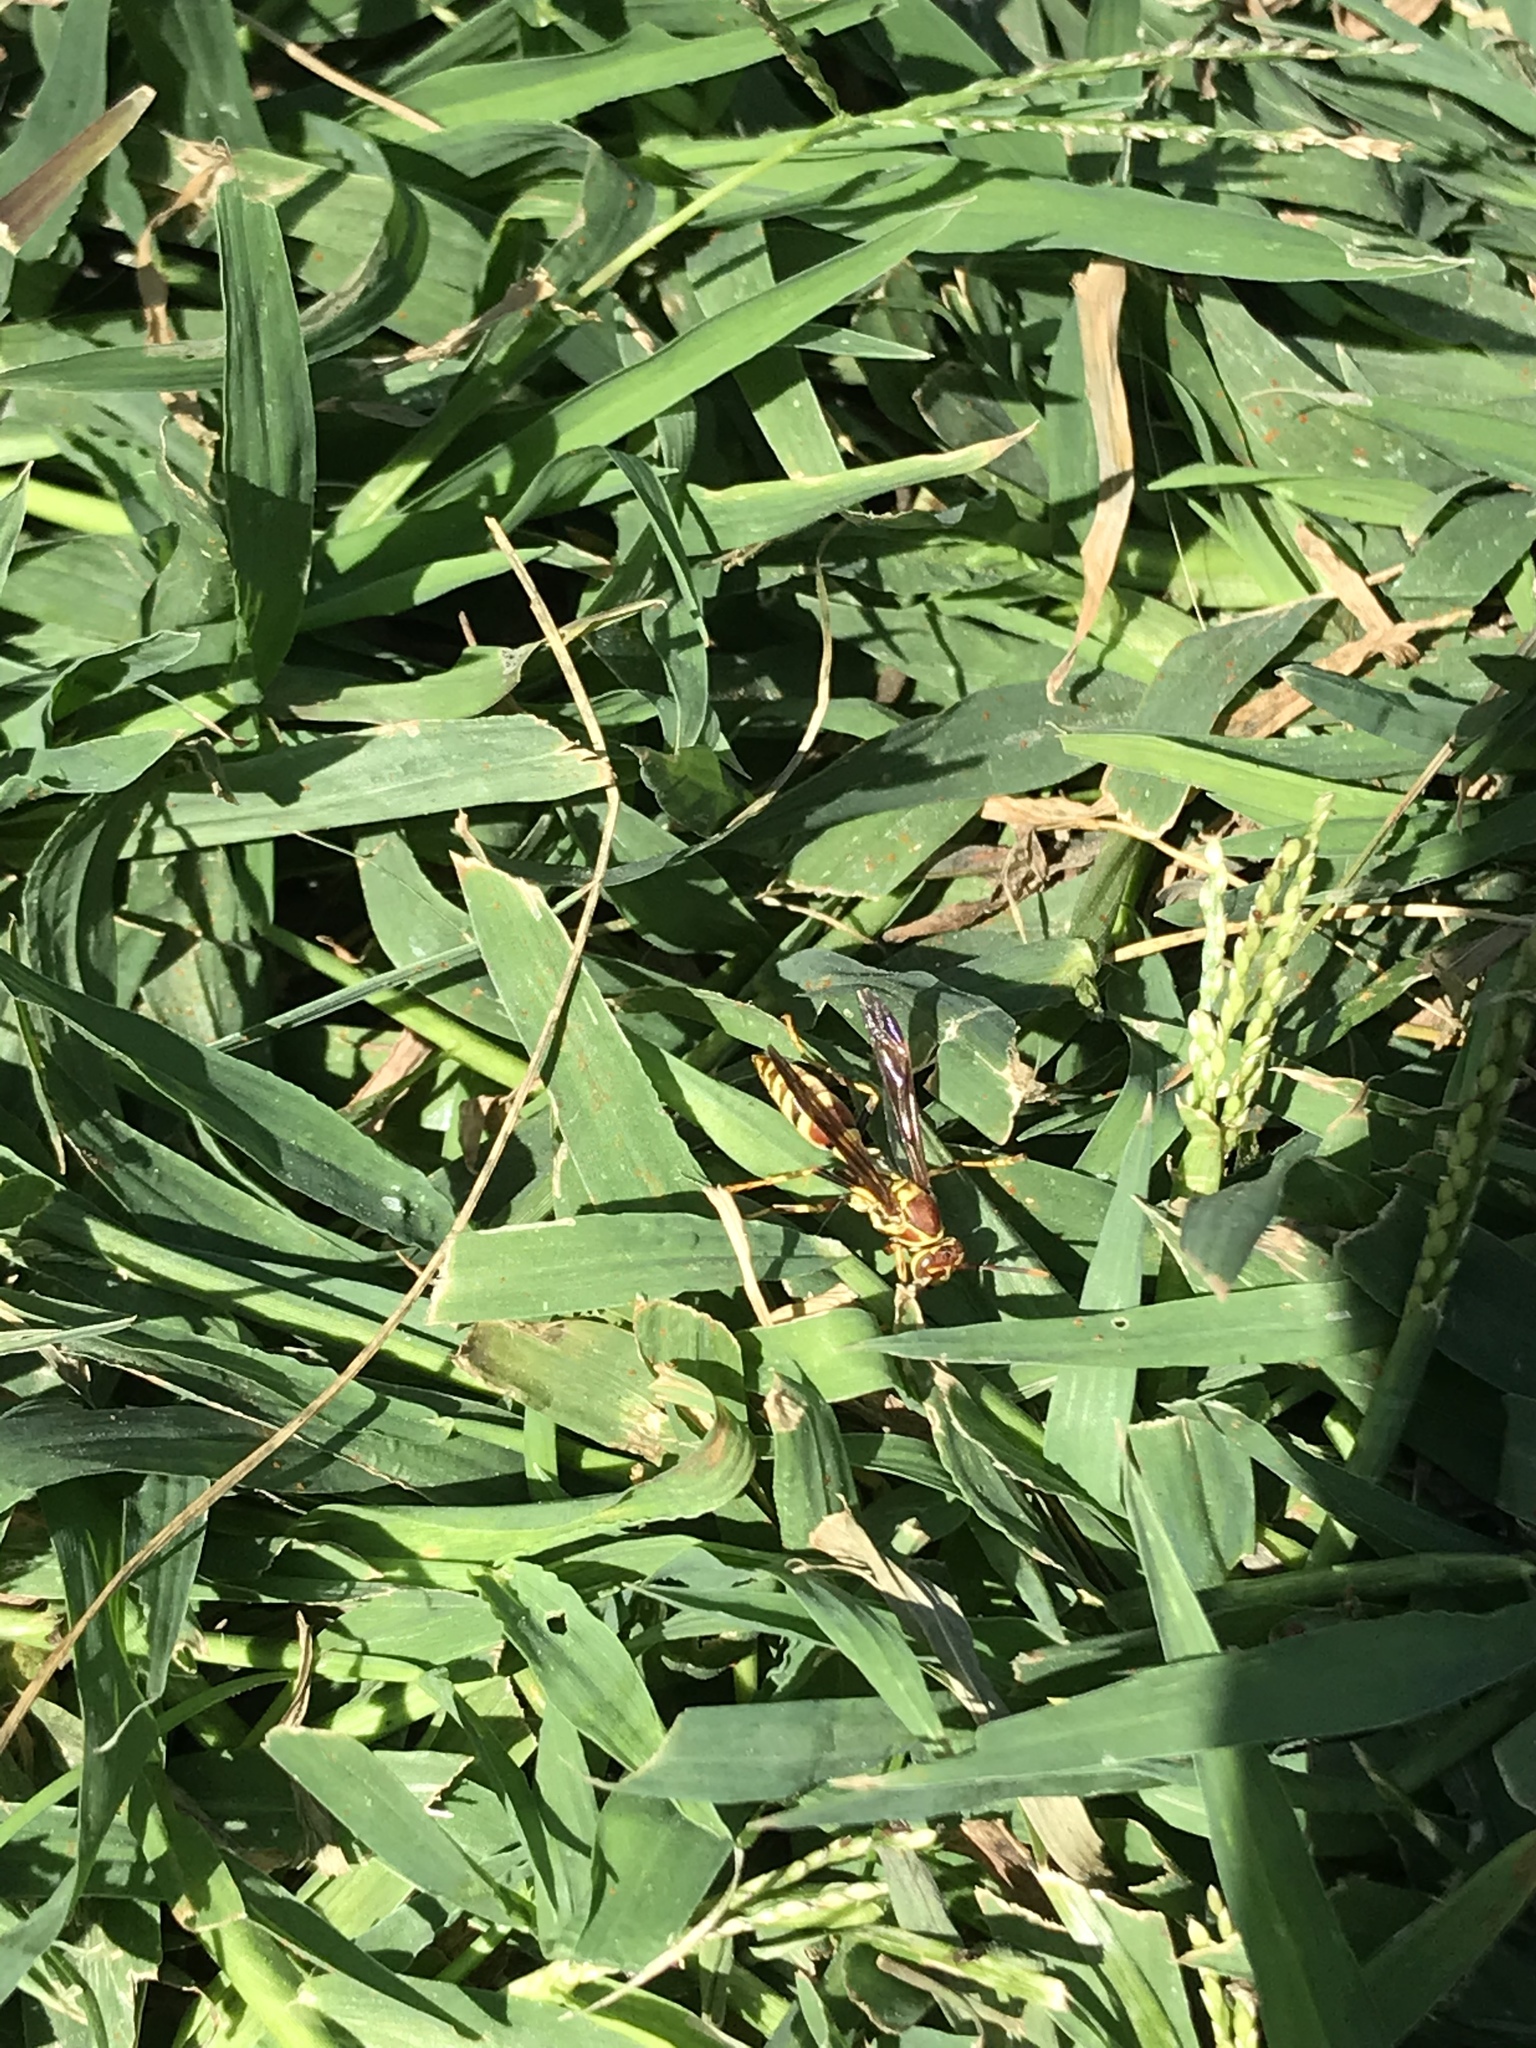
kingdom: Animalia
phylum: Arthropoda
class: Insecta
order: Hymenoptera
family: Eumenidae
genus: Polistes
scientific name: Polistes exclamans
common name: Paper wasp
